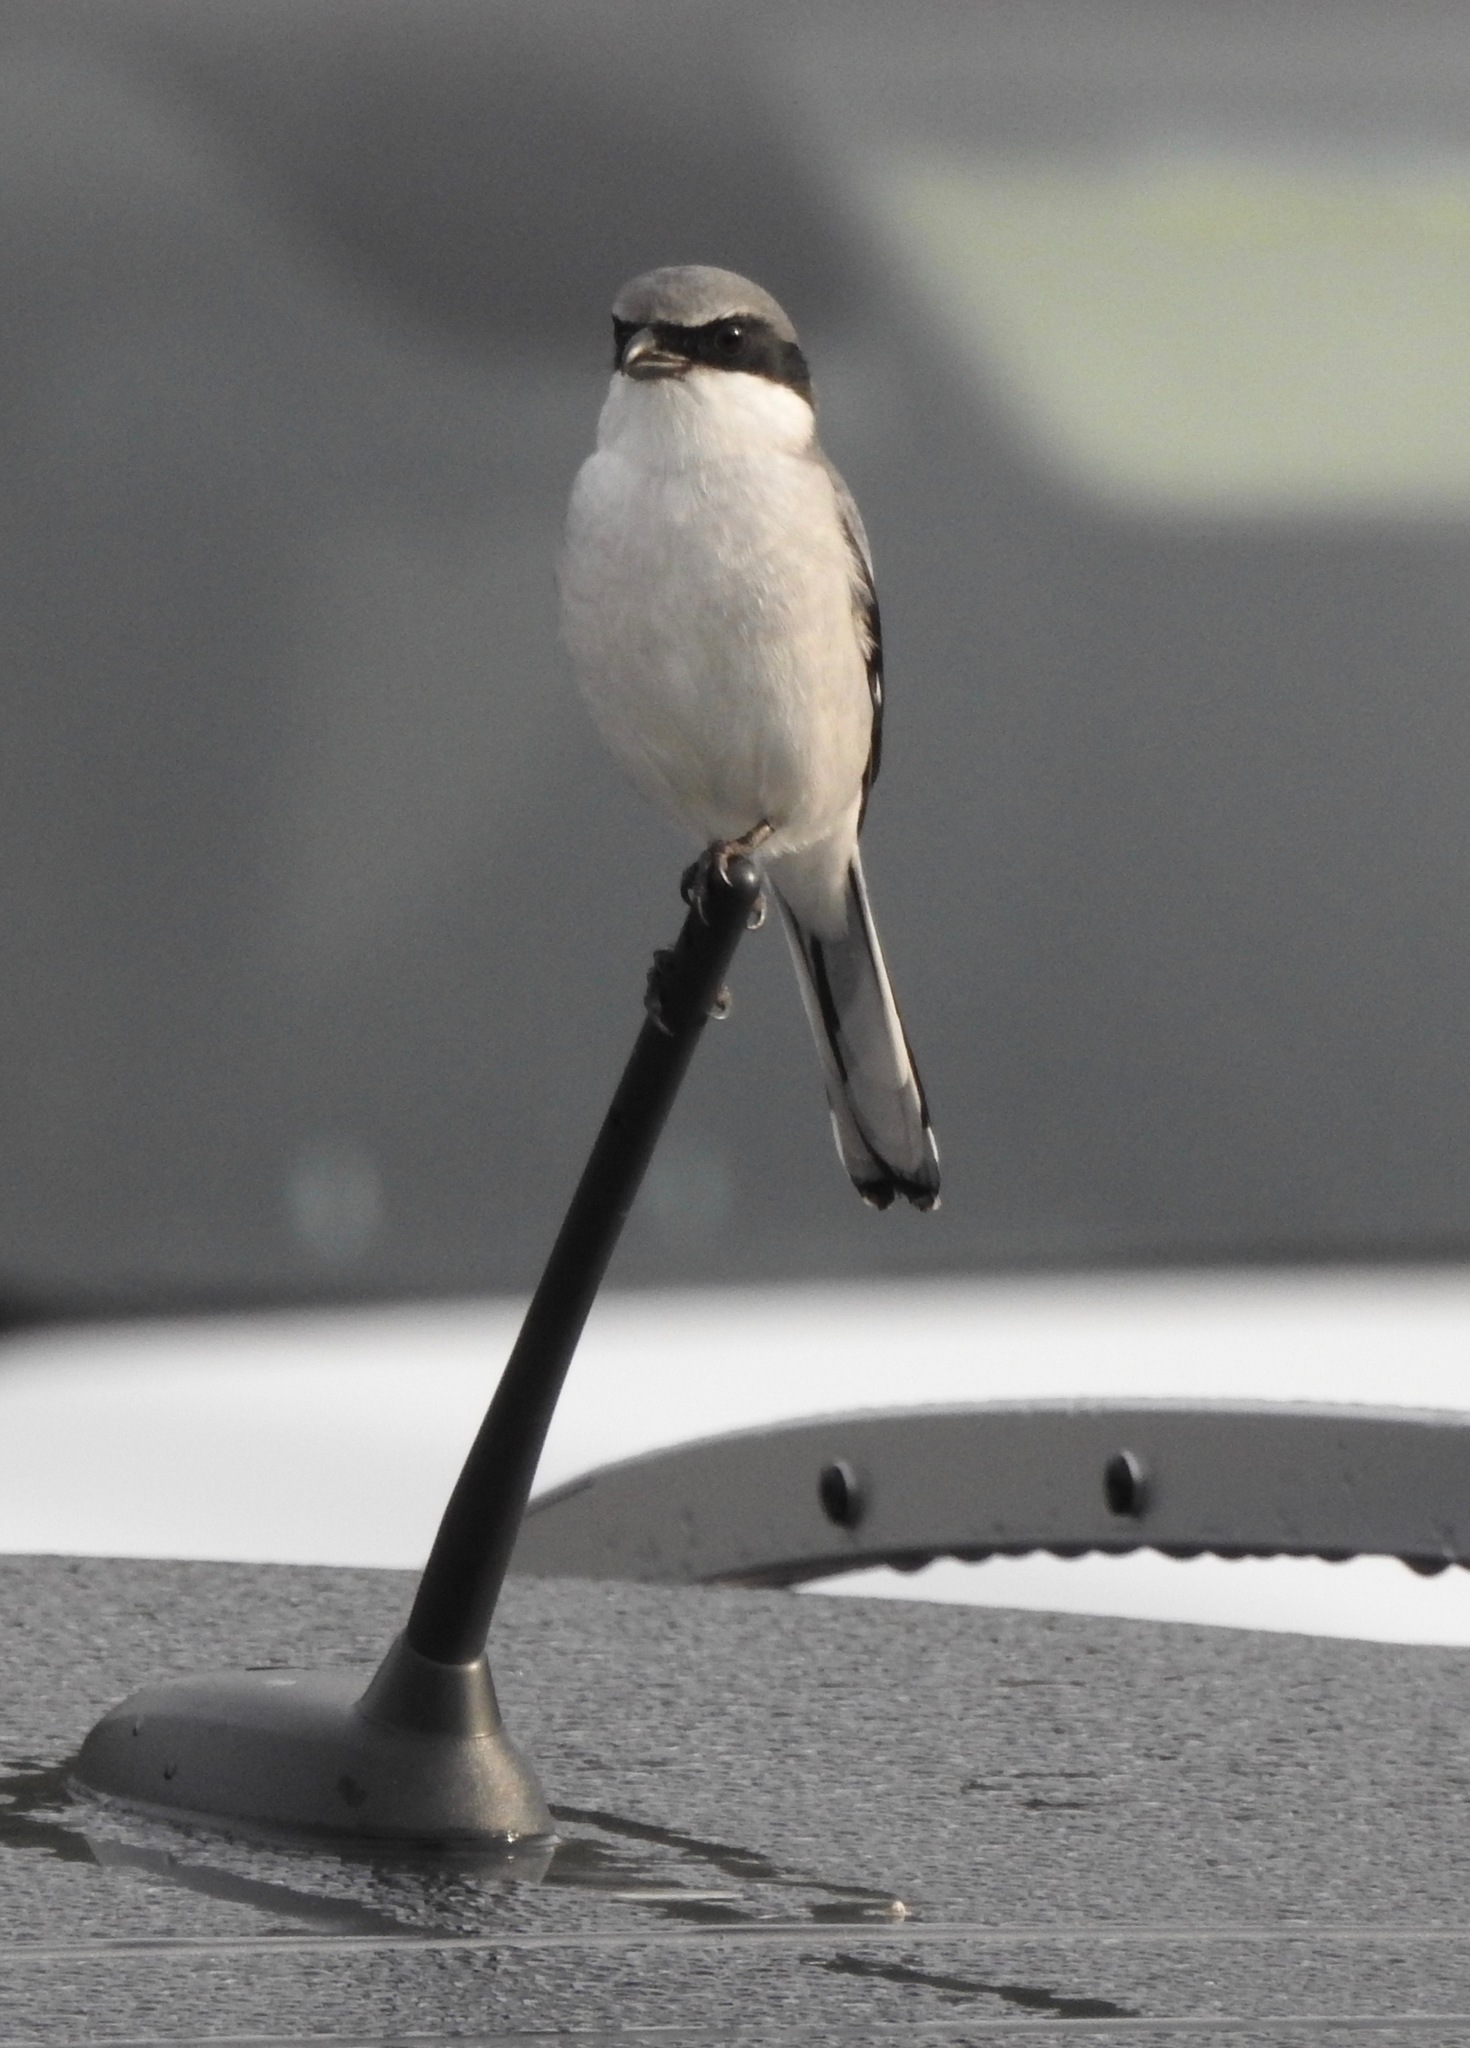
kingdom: Animalia
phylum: Chordata
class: Aves
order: Passeriformes
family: Laniidae
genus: Lanius
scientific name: Lanius ludovicianus
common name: Loggerhead shrike
